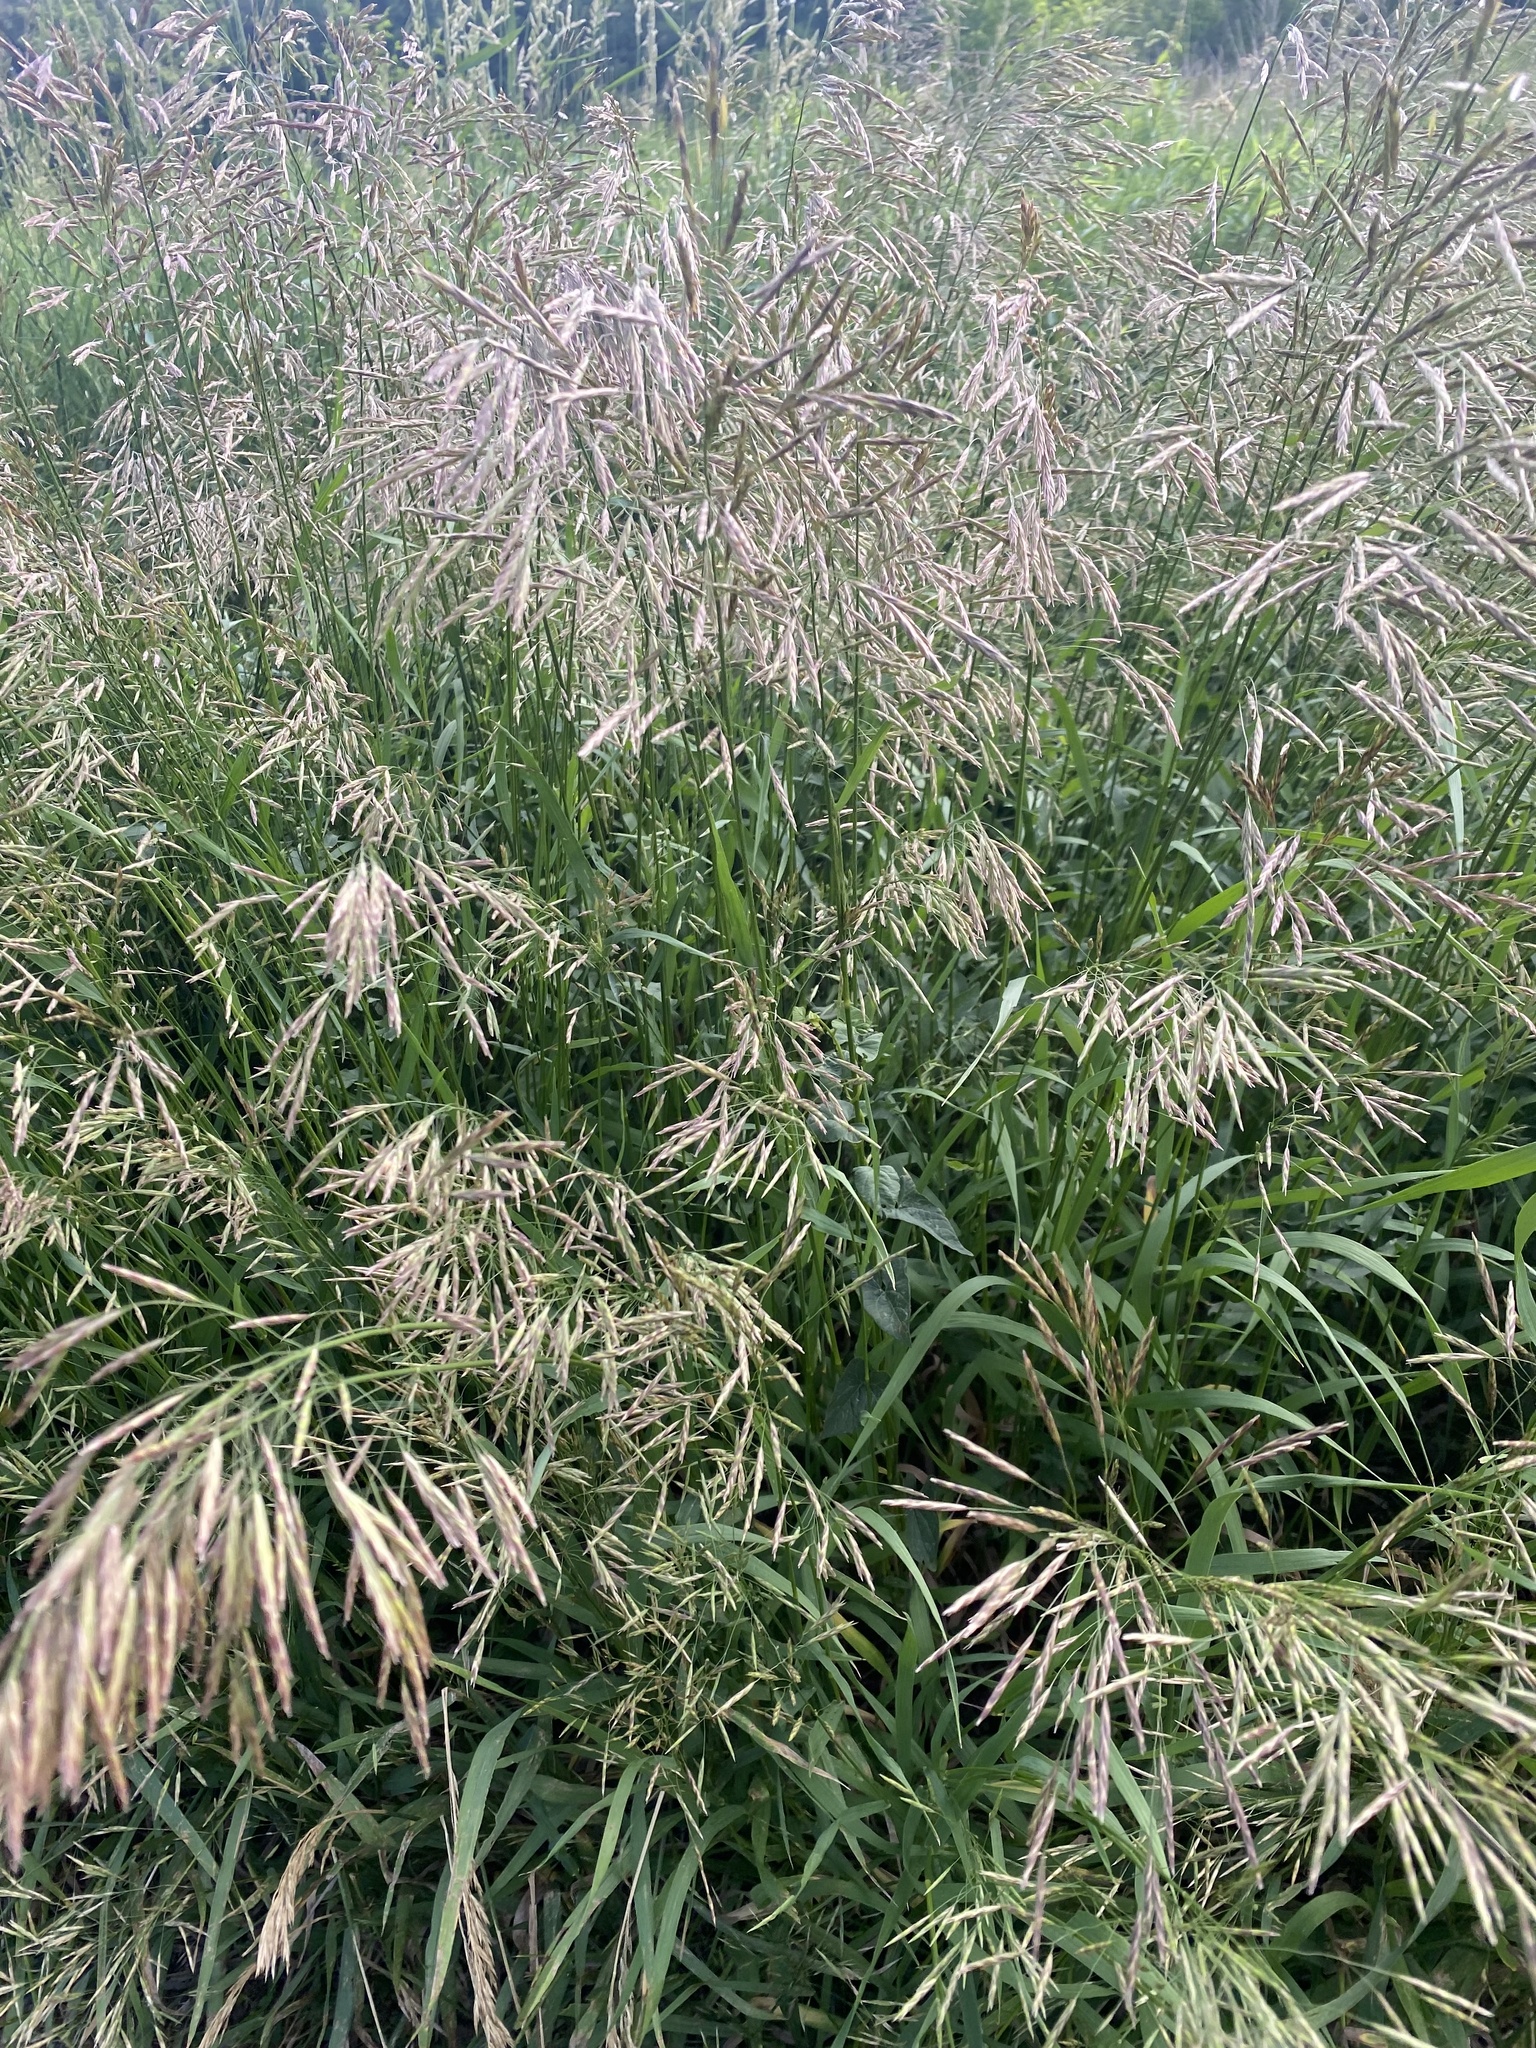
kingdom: Plantae
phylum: Tracheophyta
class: Liliopsida
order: Poales
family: Poaceae
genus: Bromus
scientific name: Bromus inermis
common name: Smooth brome
